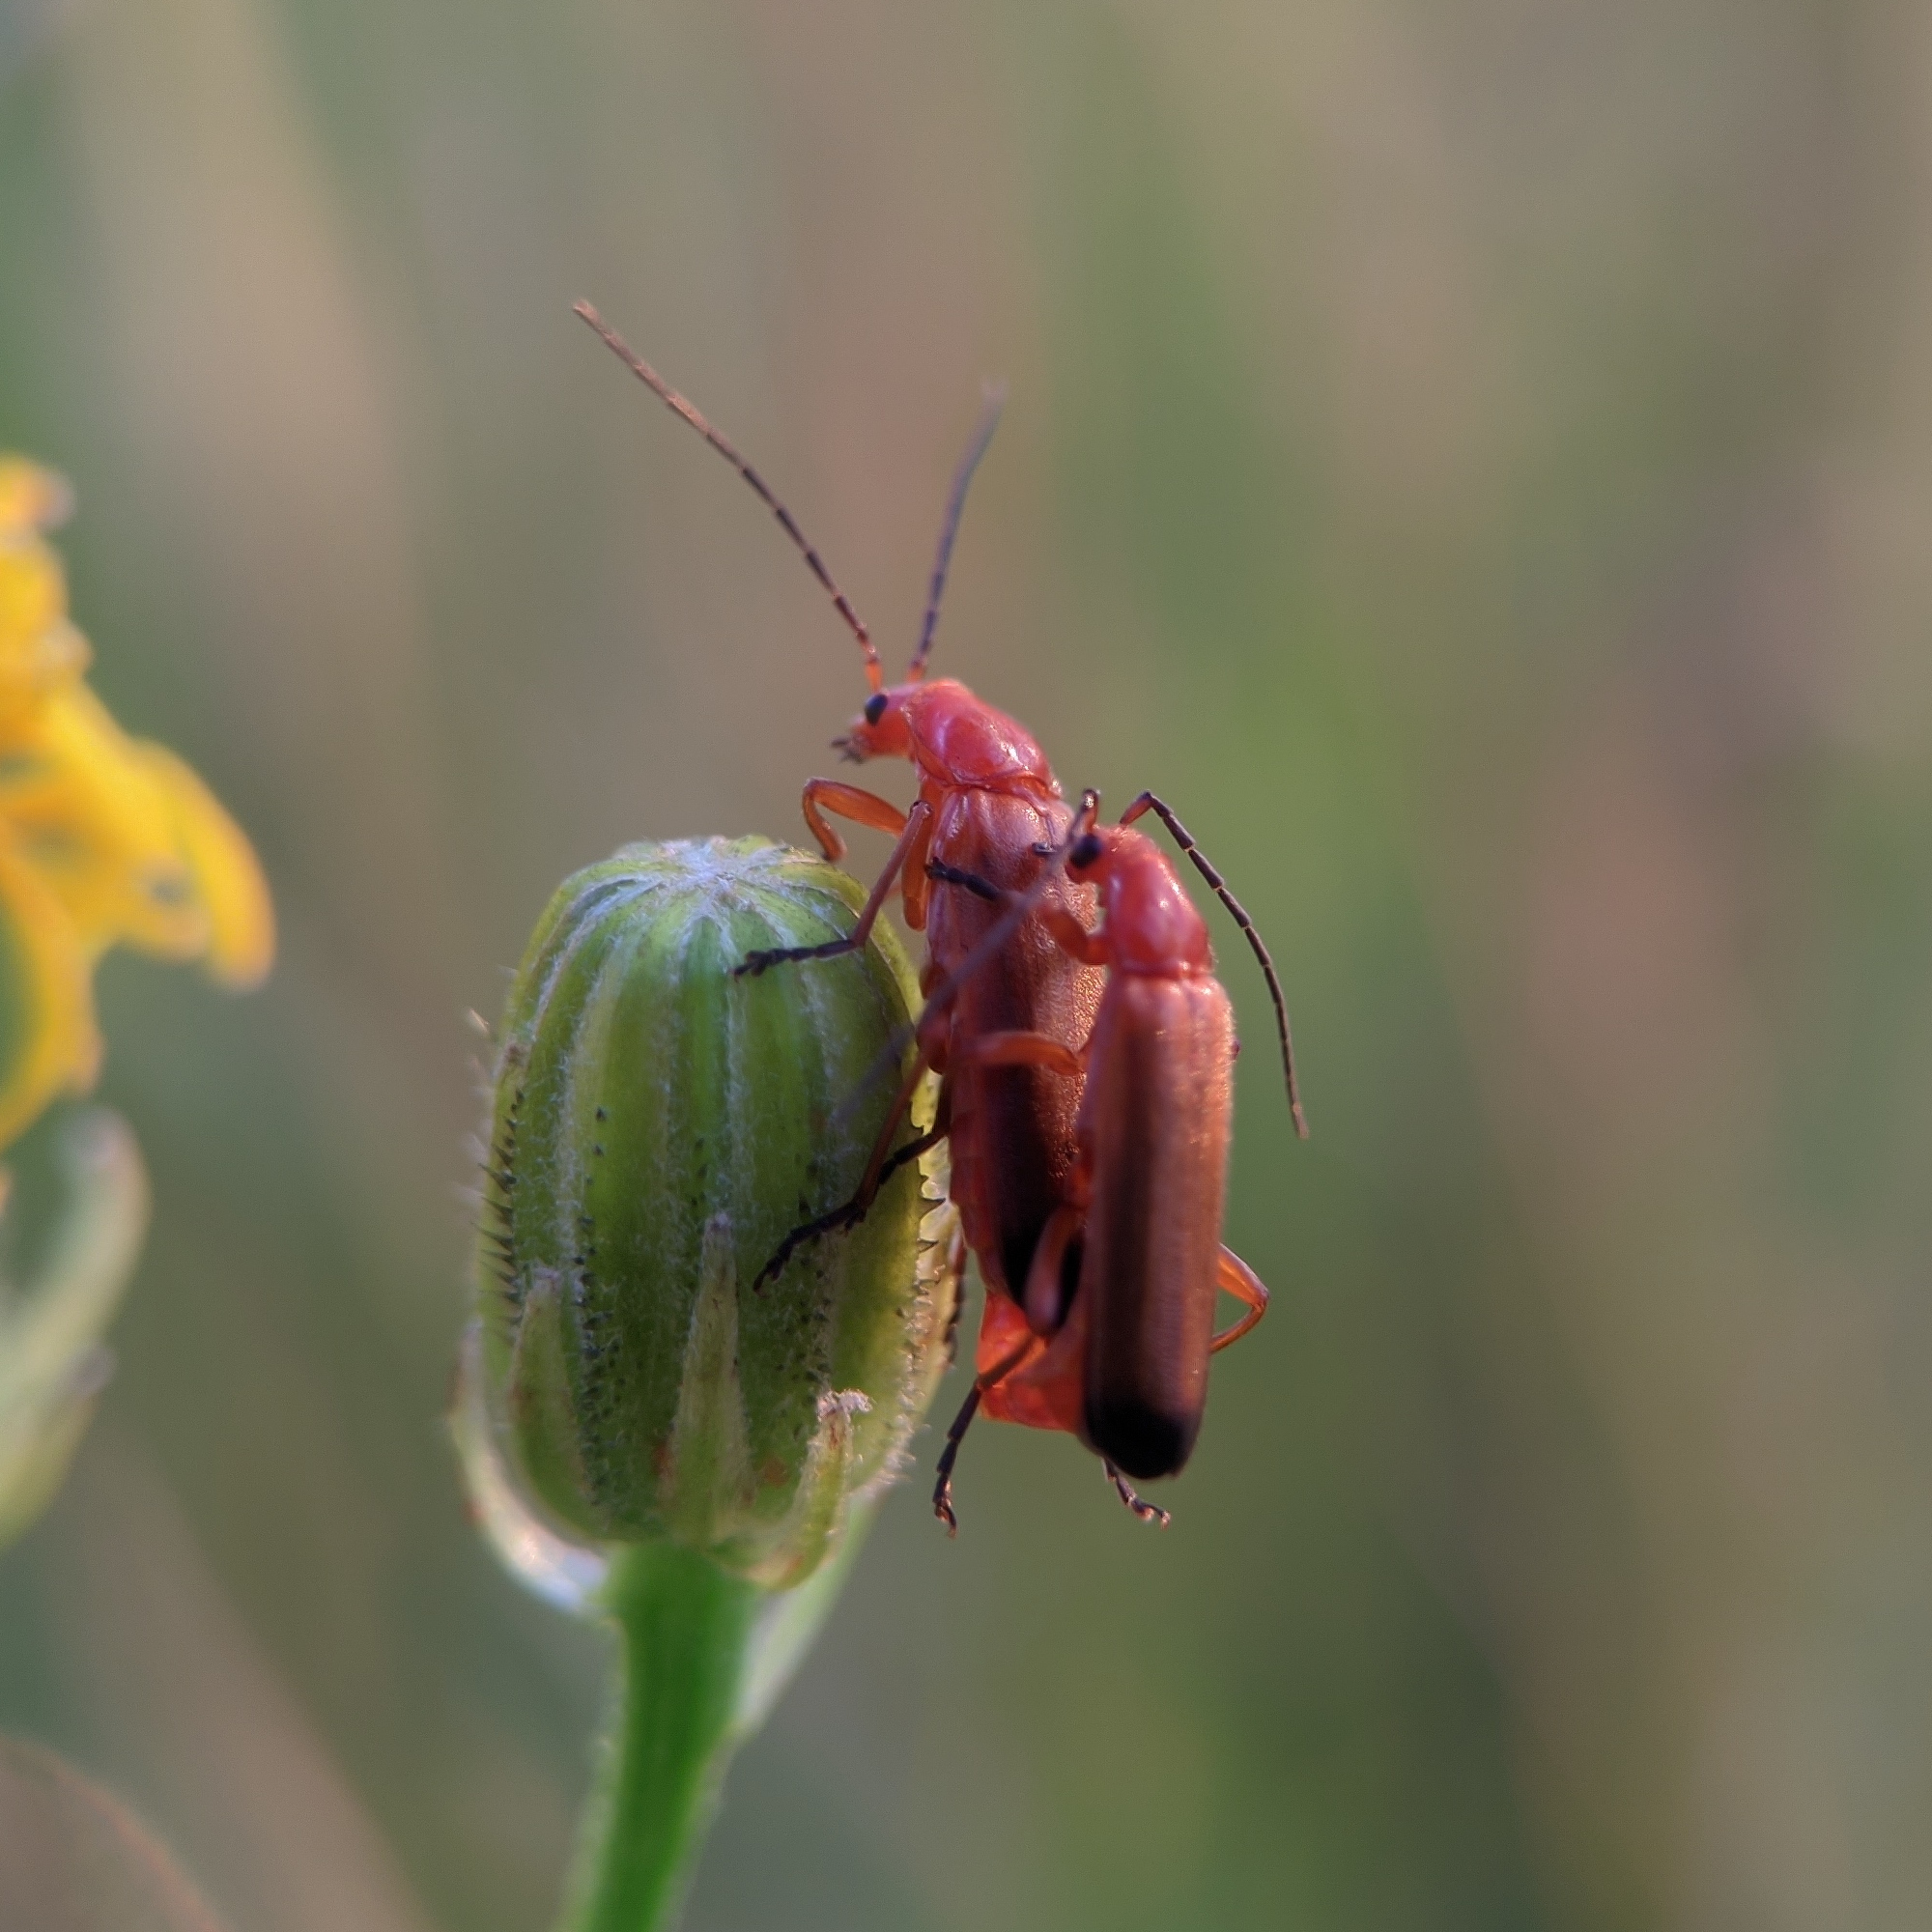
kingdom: Animalia
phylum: Arthropoda
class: Insecta
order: Coleoptera
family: Cantharidae
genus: Rhagonycha
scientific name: Rhagonycha fulva
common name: Common red soldier beetle
